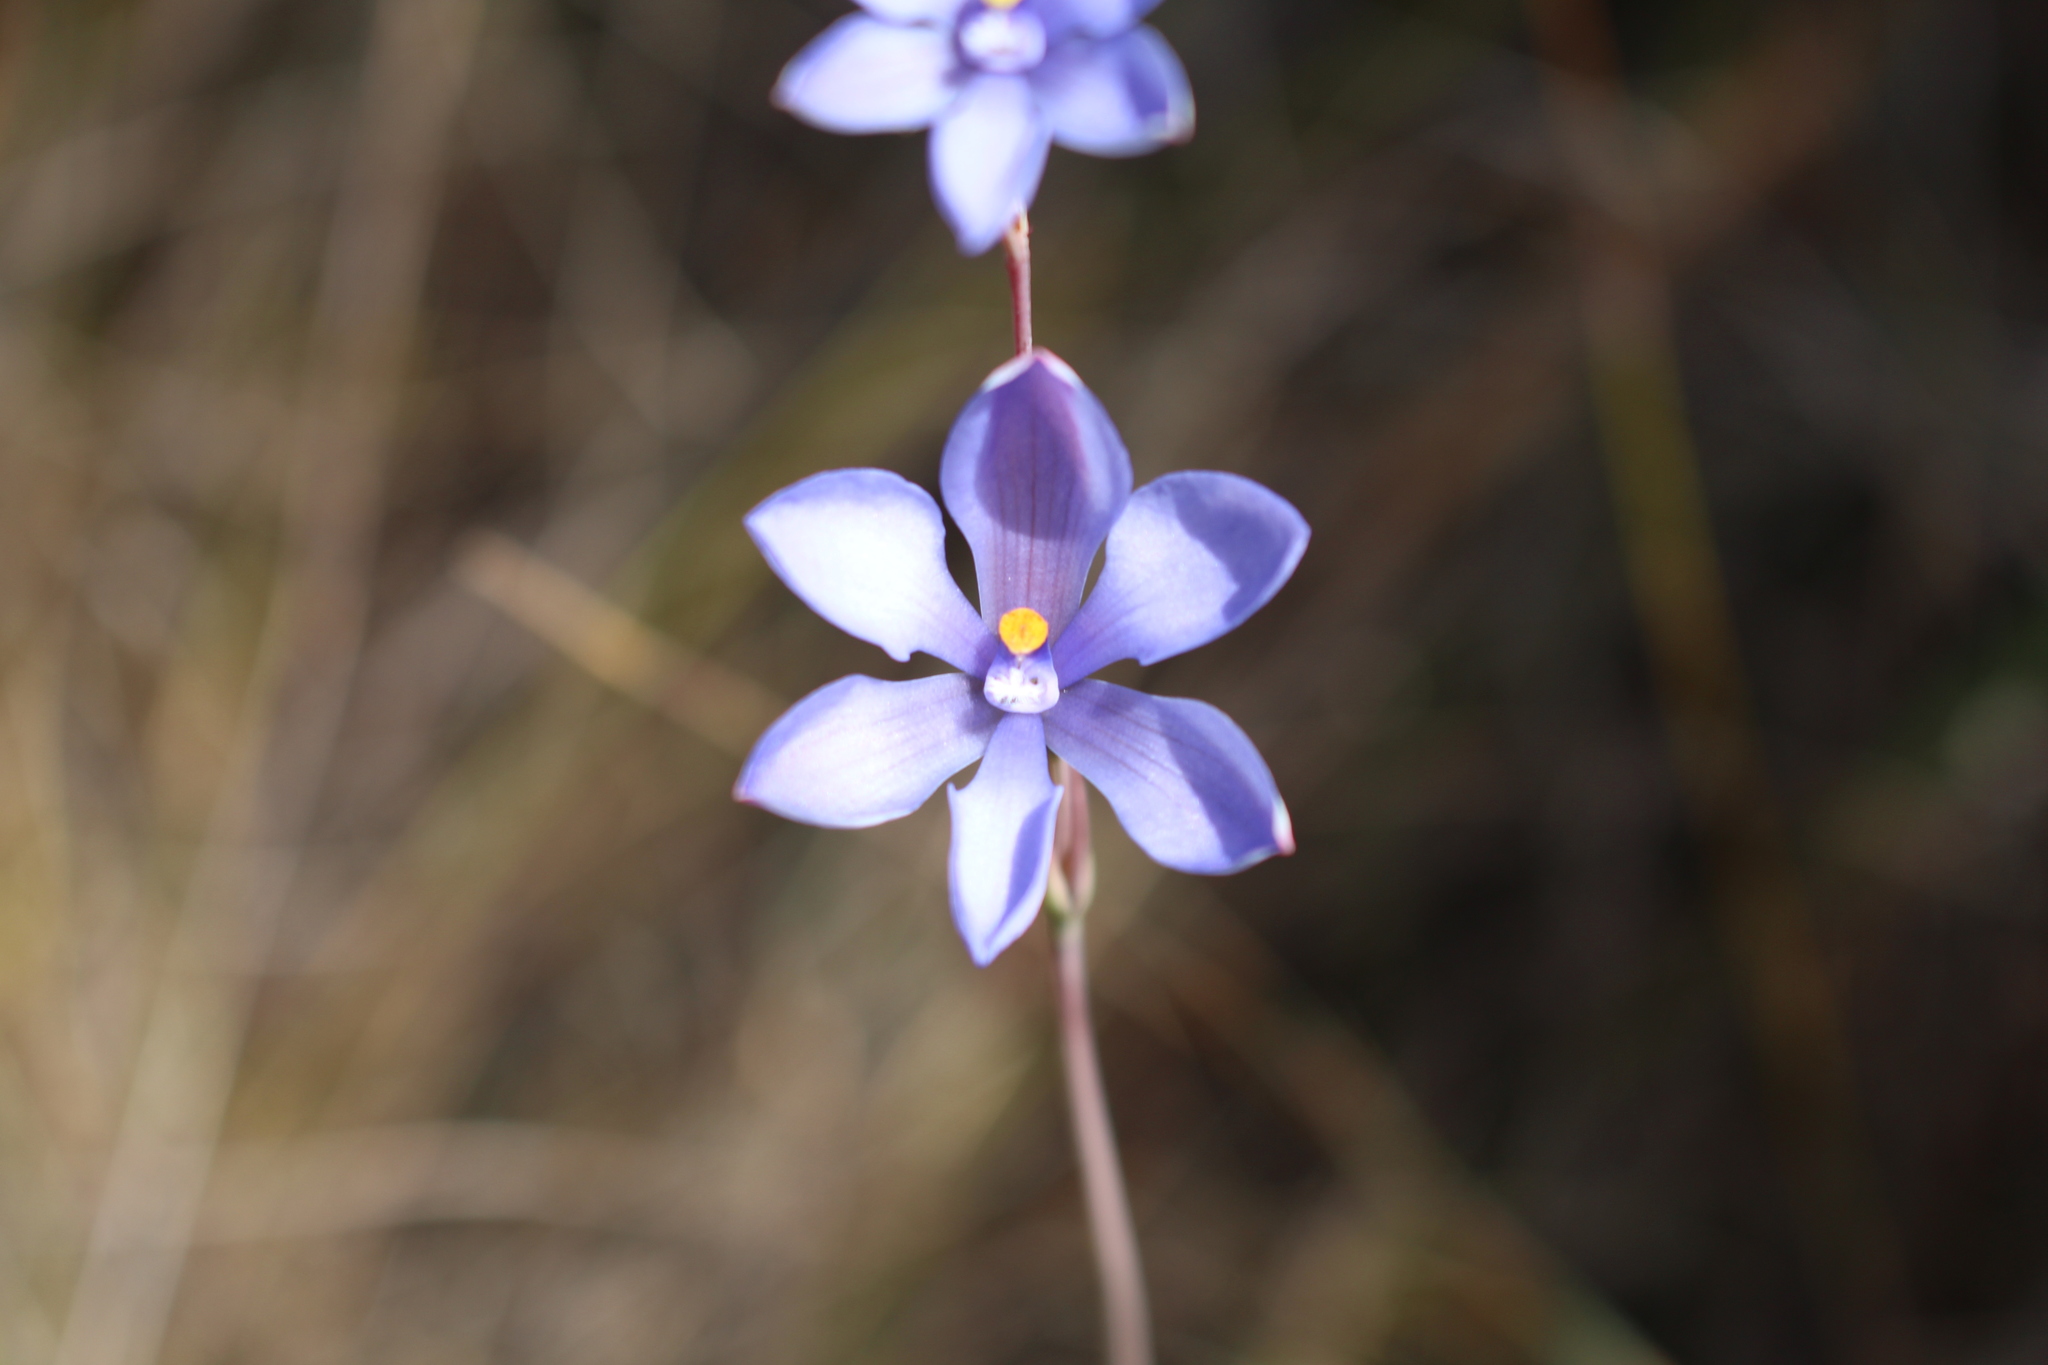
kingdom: Plantae
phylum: Tracheophyta
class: Liliopsida
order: Asparagales
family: Orchidaceae
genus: Thelymitra
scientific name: Thelymitra cornicina
